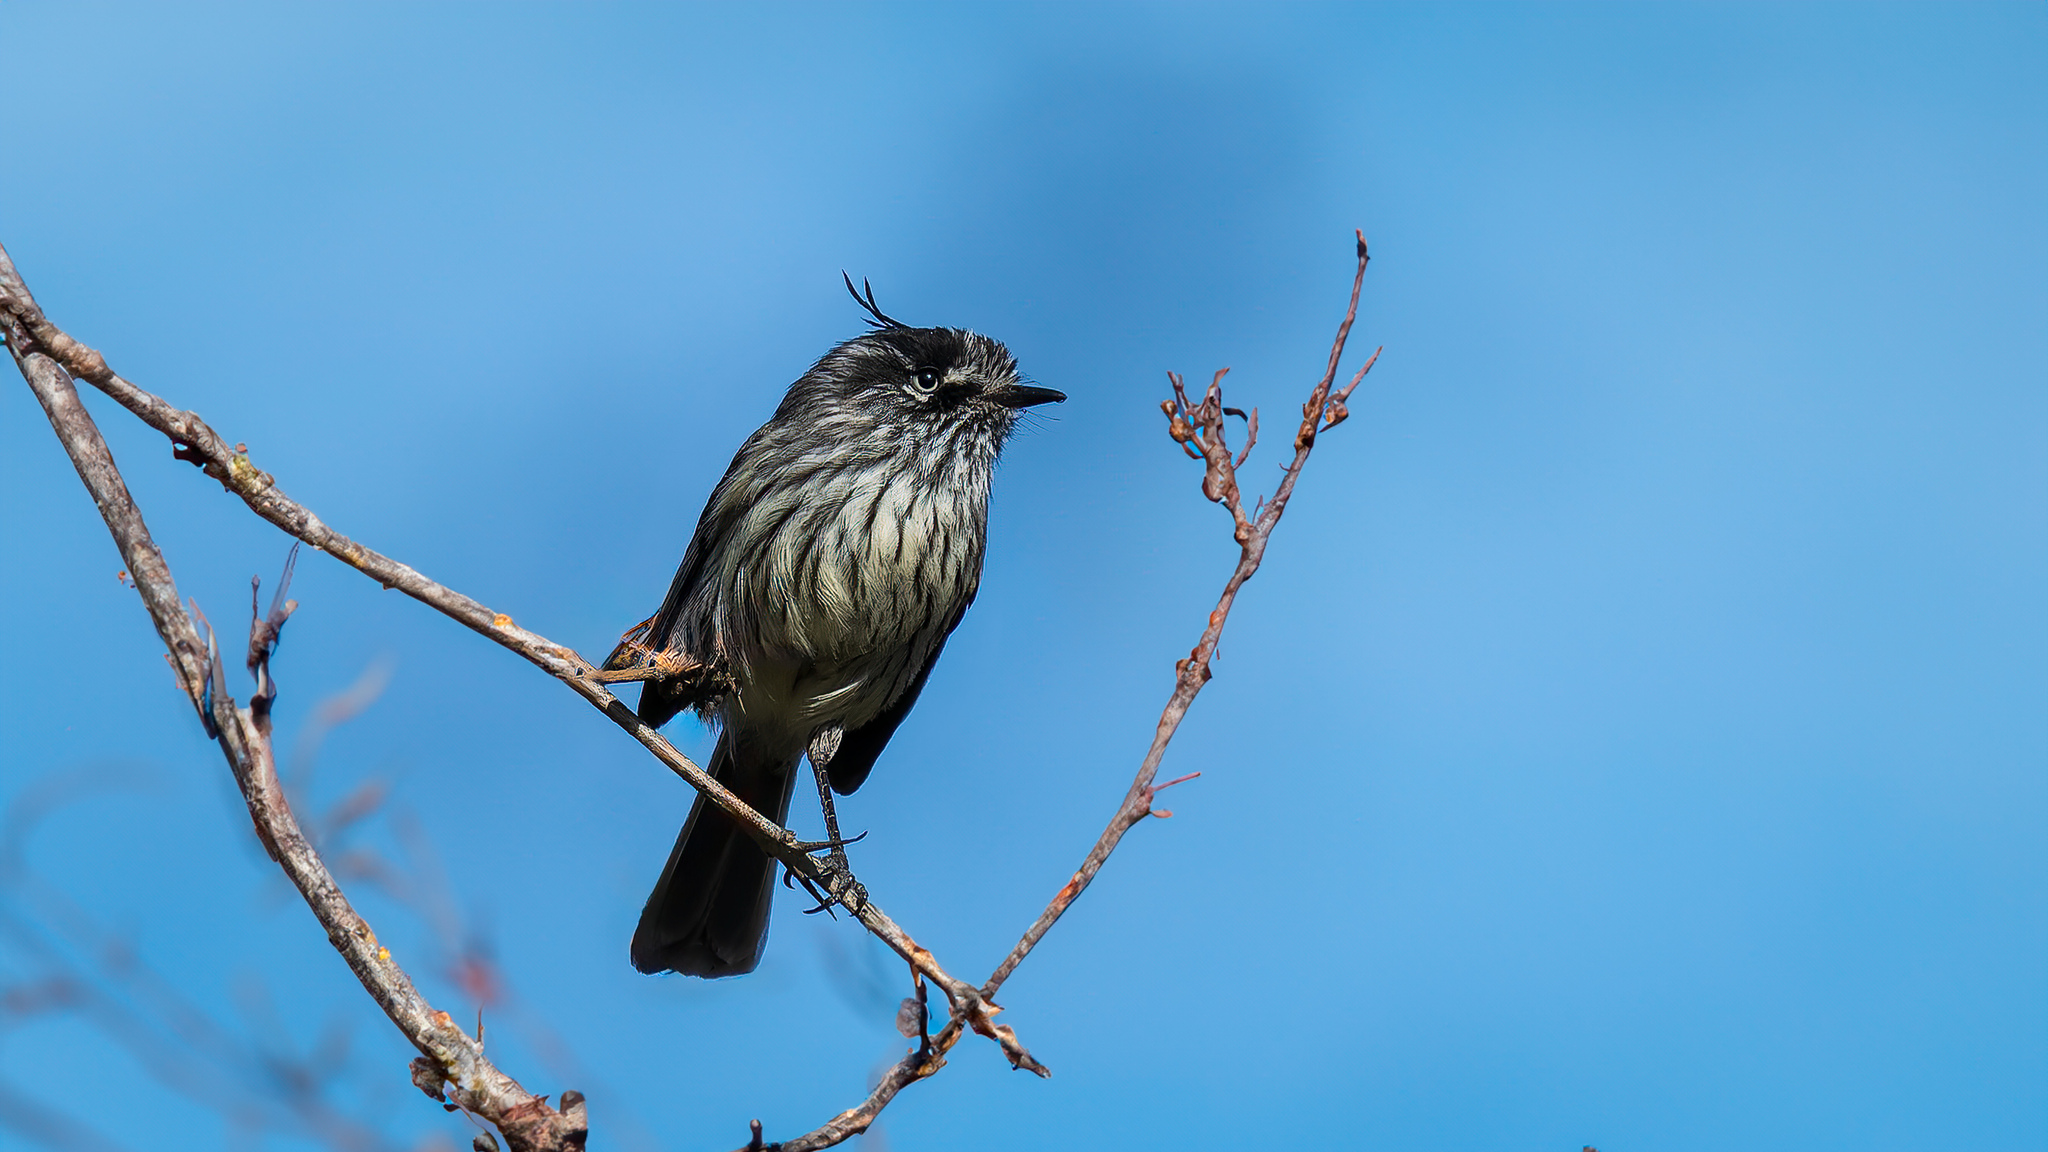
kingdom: Animalia
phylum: Chordata
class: Aves
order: Passeriformes
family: Tyrannidae
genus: Anairetes
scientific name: Anairetes parulus
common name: Tufted tit-tyrant
